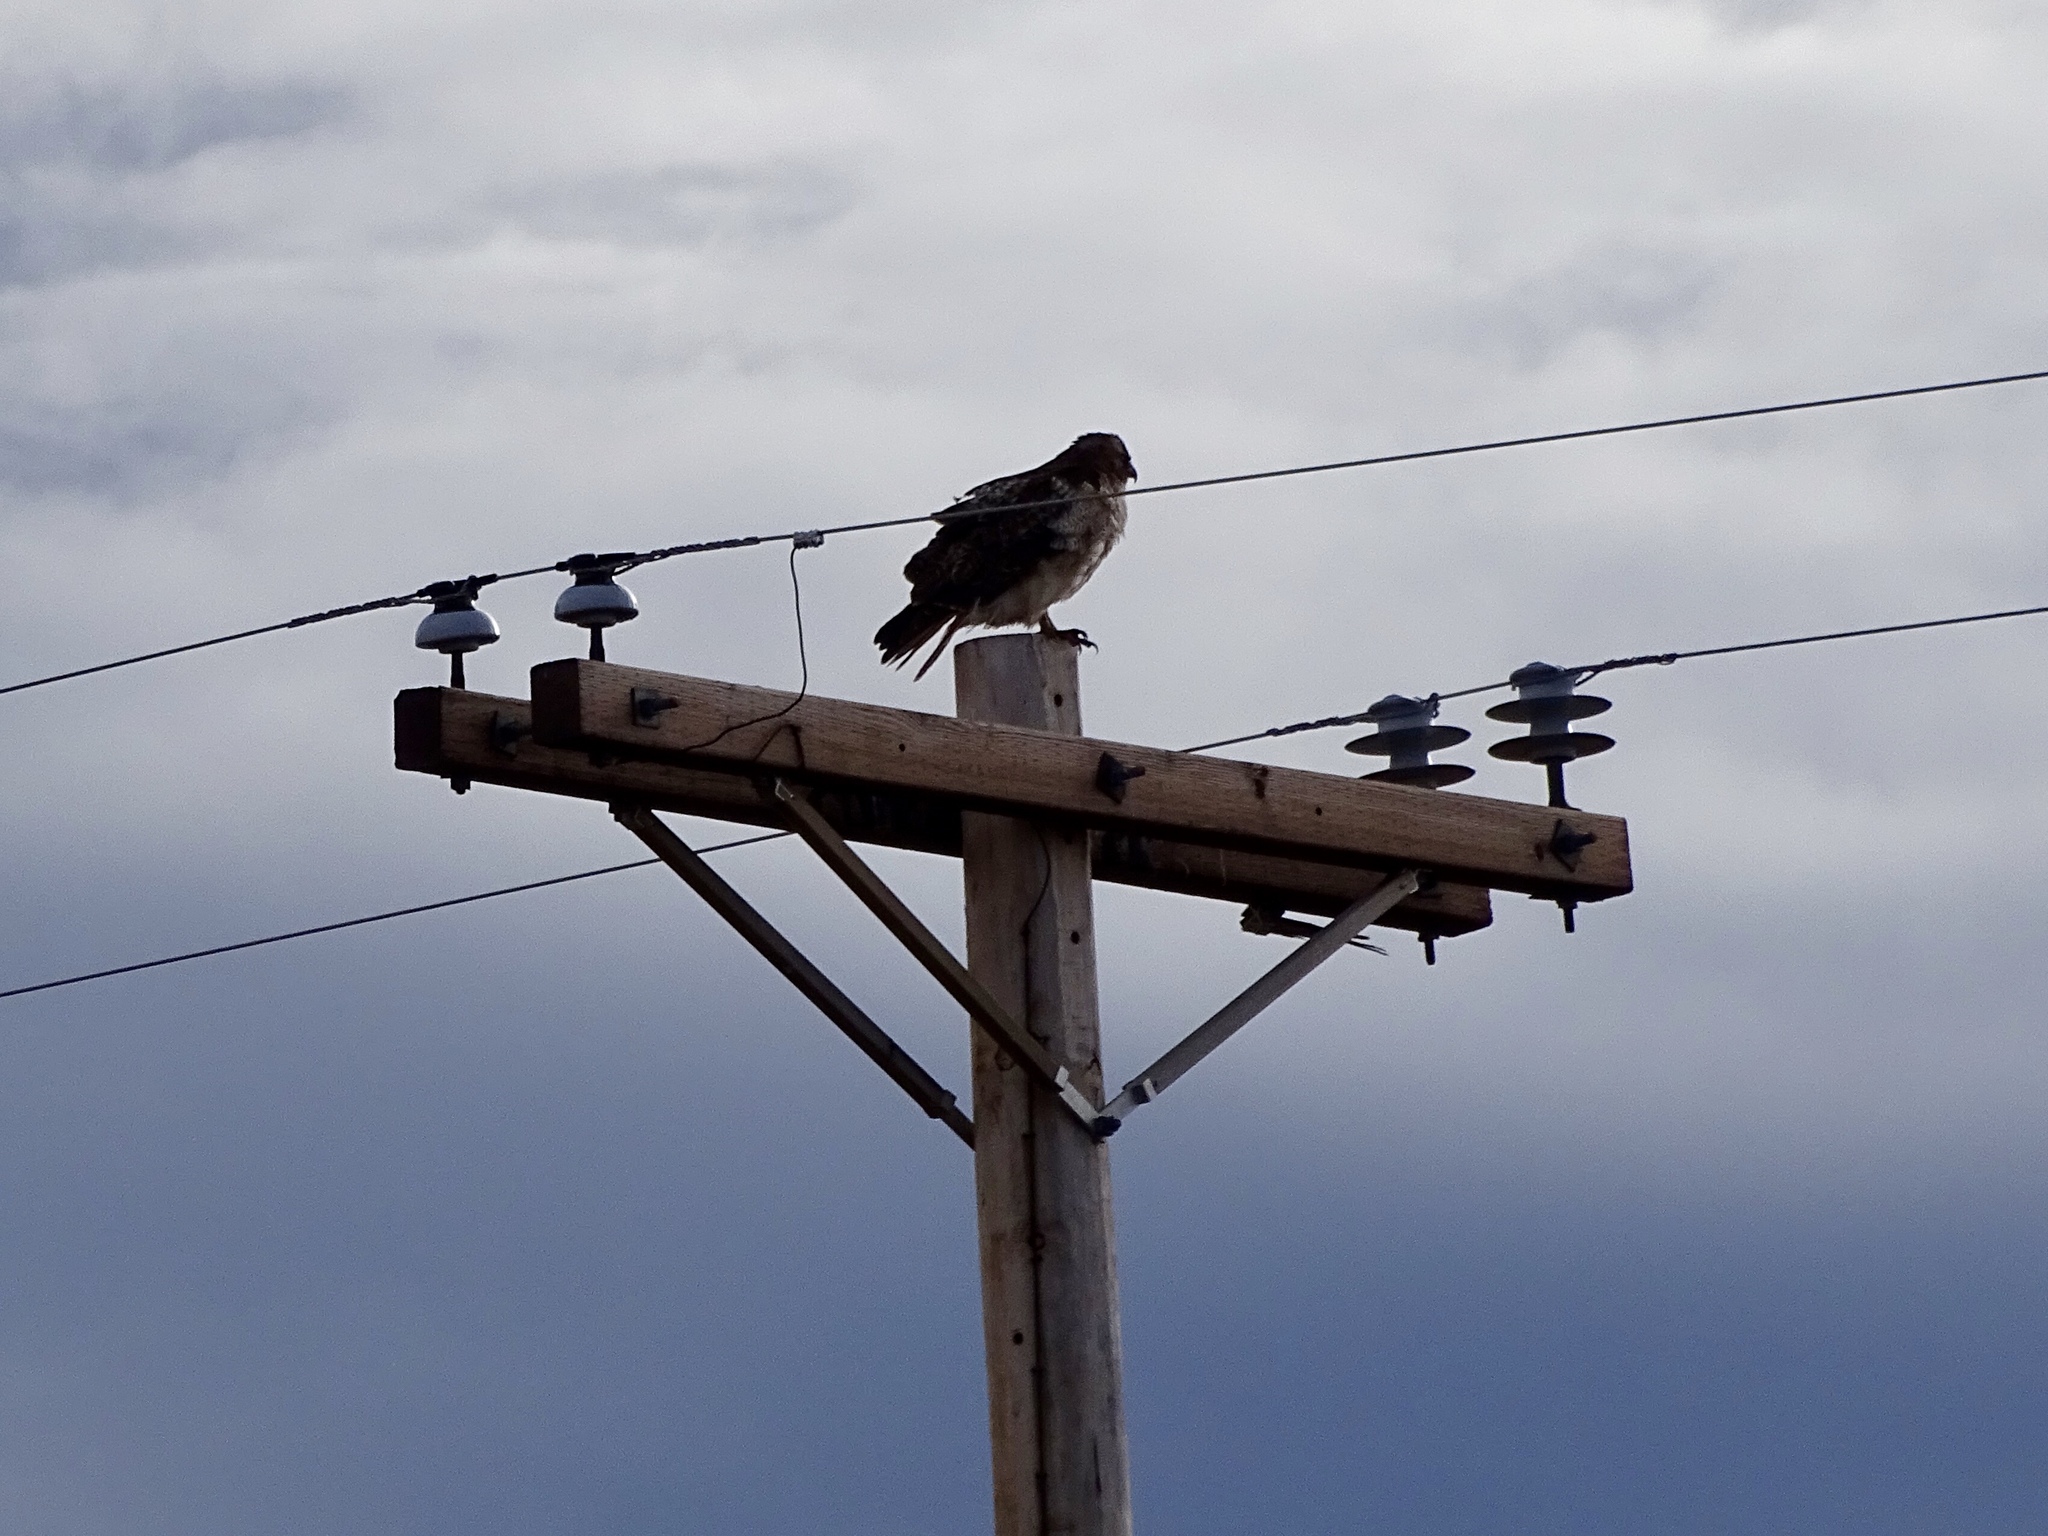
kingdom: Animalia
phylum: Chordata
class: Aves
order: Accipitriformes
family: Accipitridae
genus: Buteo
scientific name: Buteo jamaicensis
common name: Red-tailed hawk
